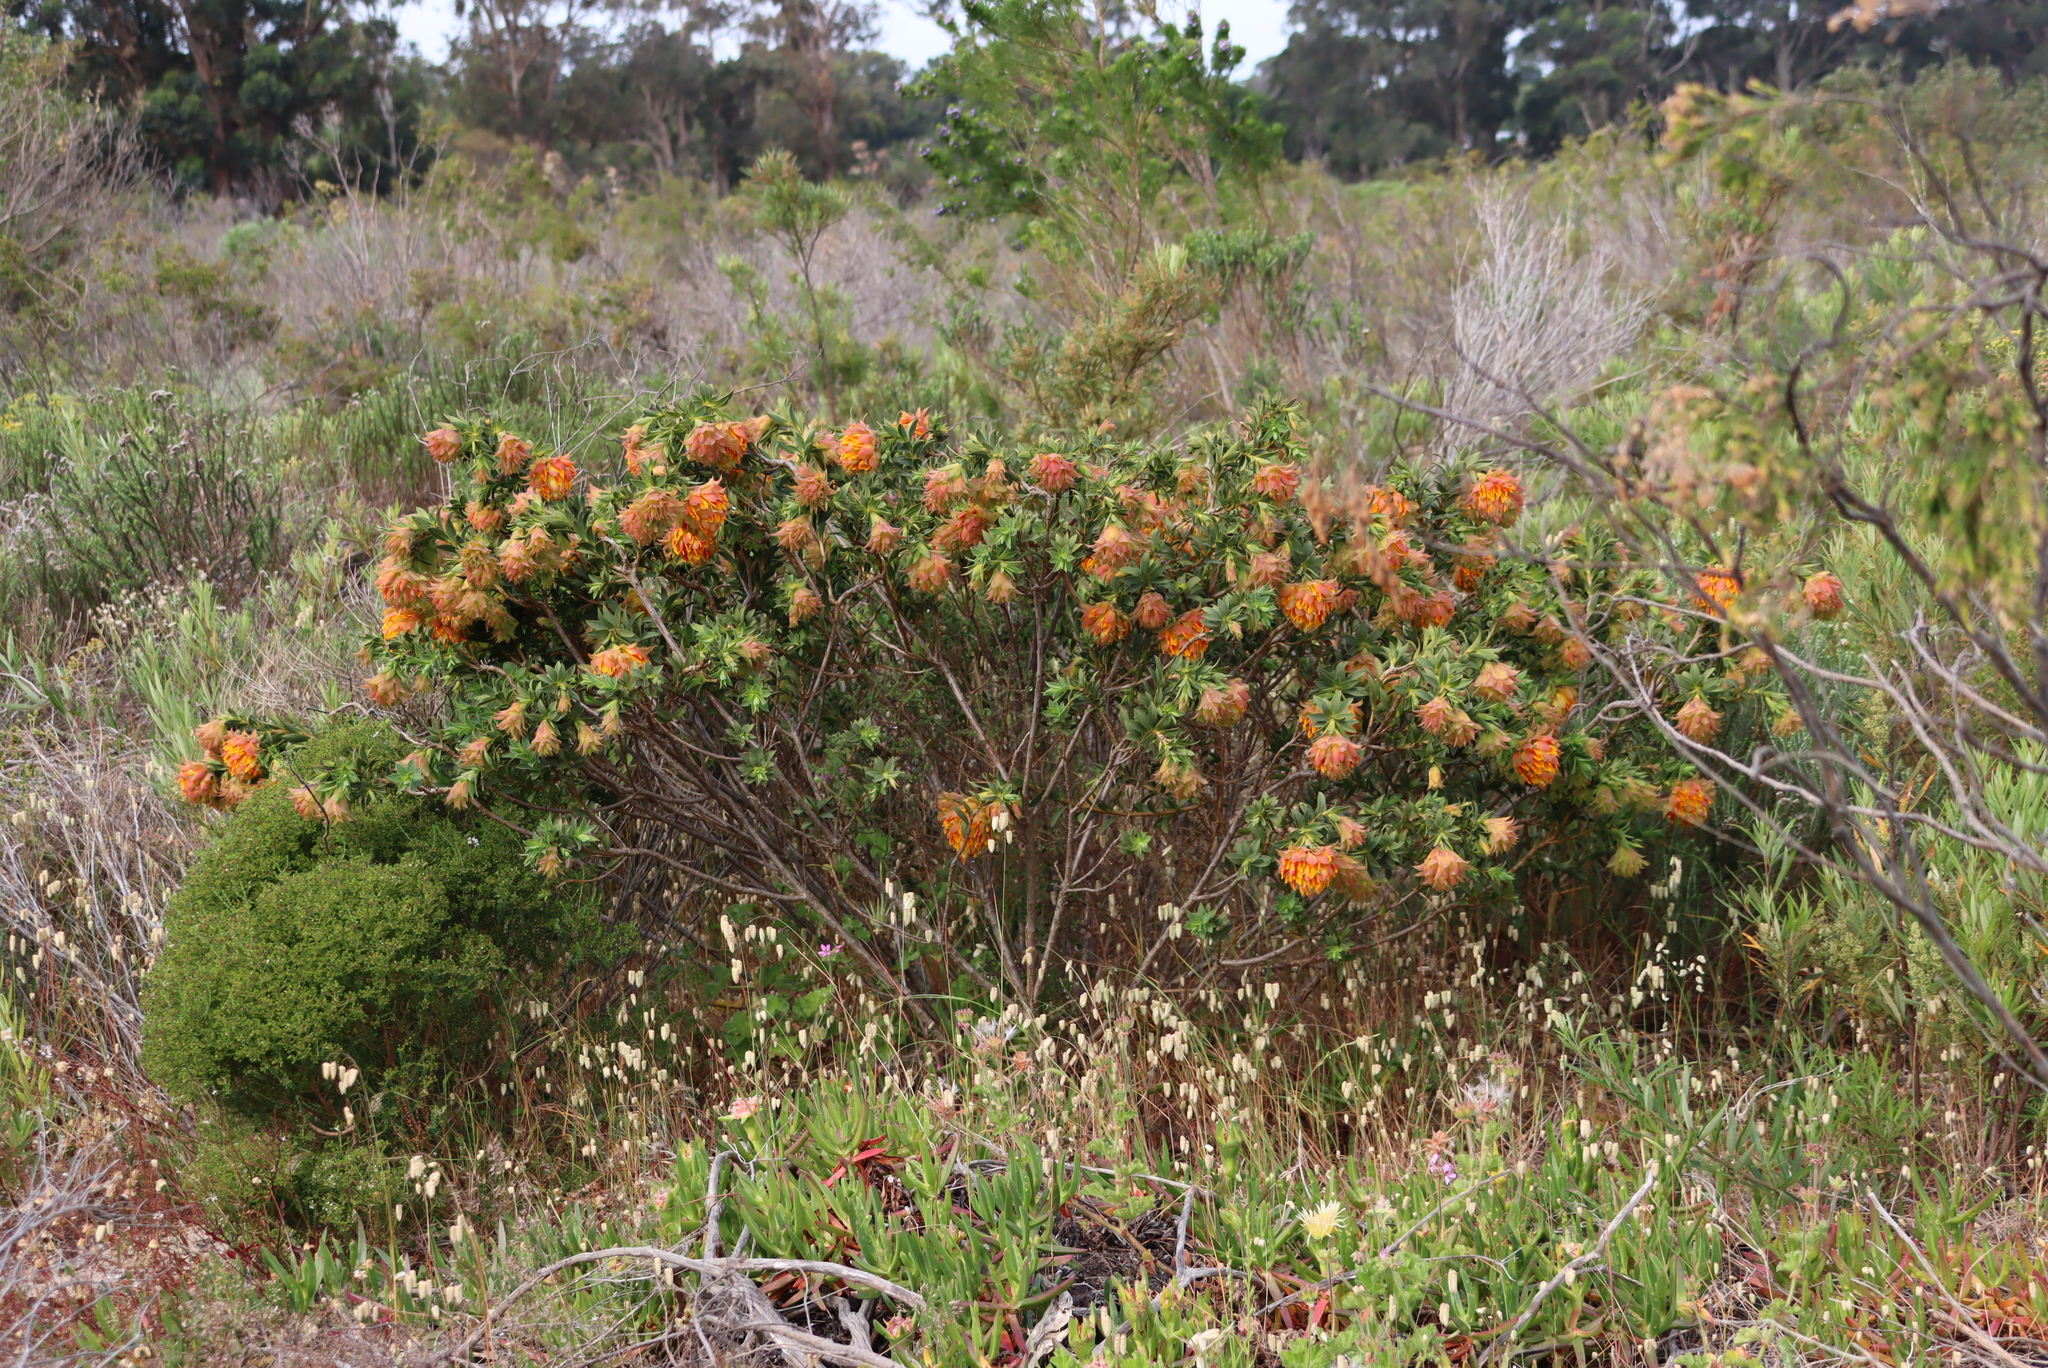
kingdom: Plantae
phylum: Tracheophyta
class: Magnoliopsida
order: Fabales
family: Fabaceae
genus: Liparia
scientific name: Liparia splendens
